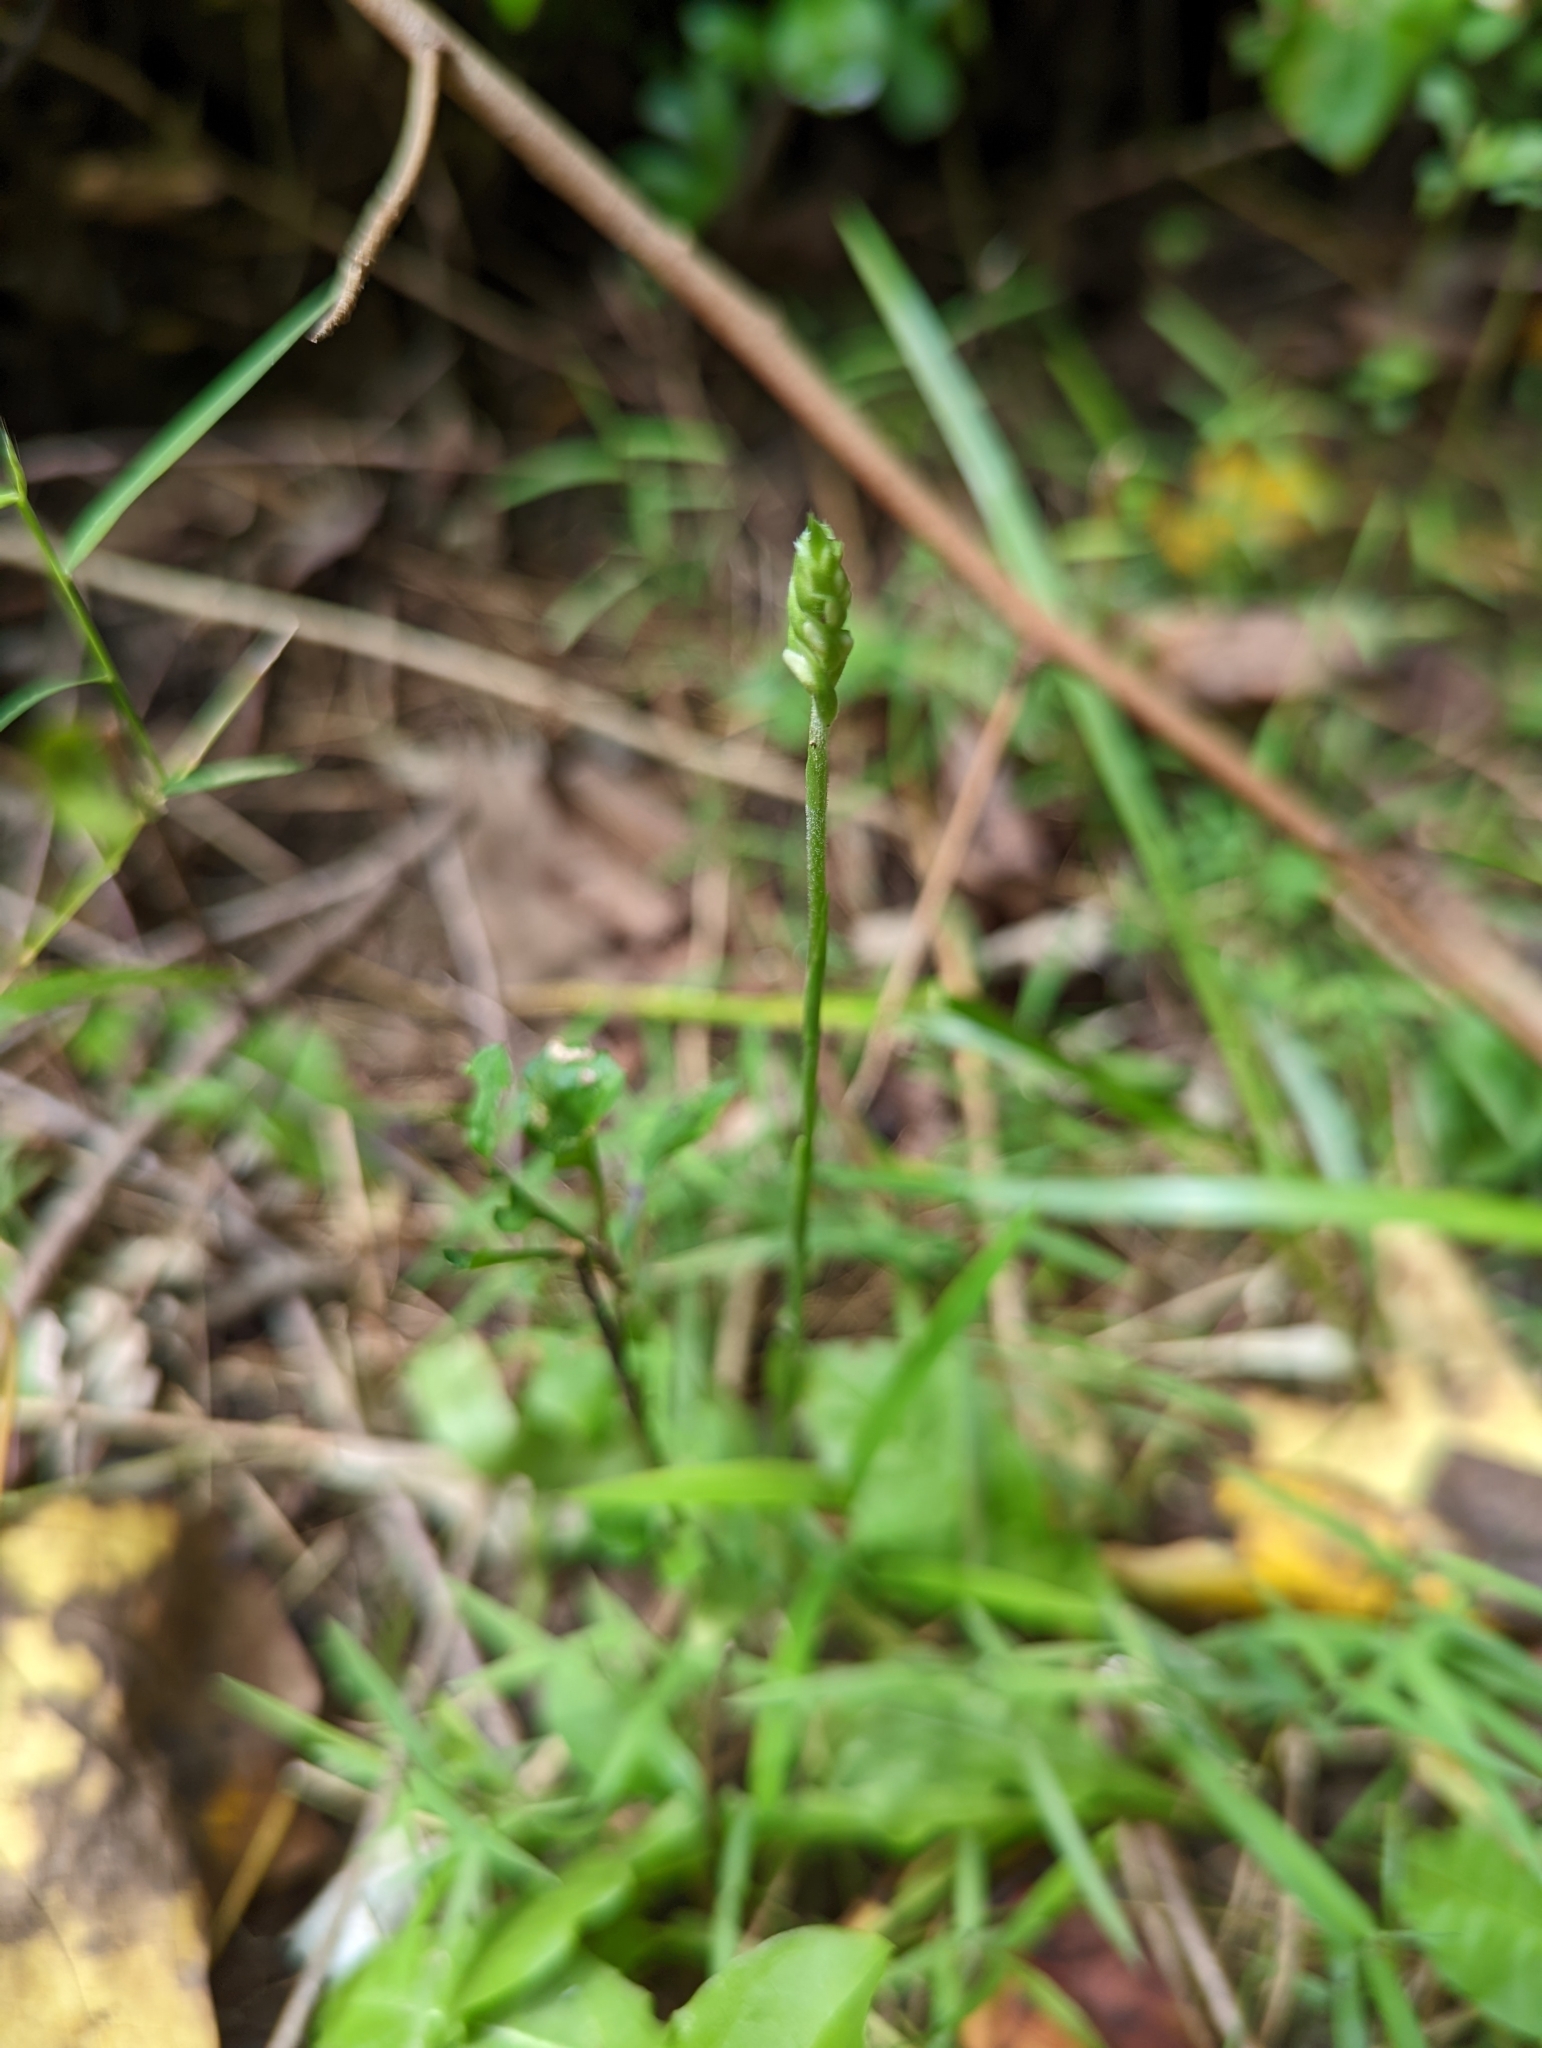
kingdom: Plantae
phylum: Tracheophyta
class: Liliopsida
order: Asparagales
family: Orchidaceae
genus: Spiranthes
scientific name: Spiranthes ovalis
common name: October ladies'-tresses
